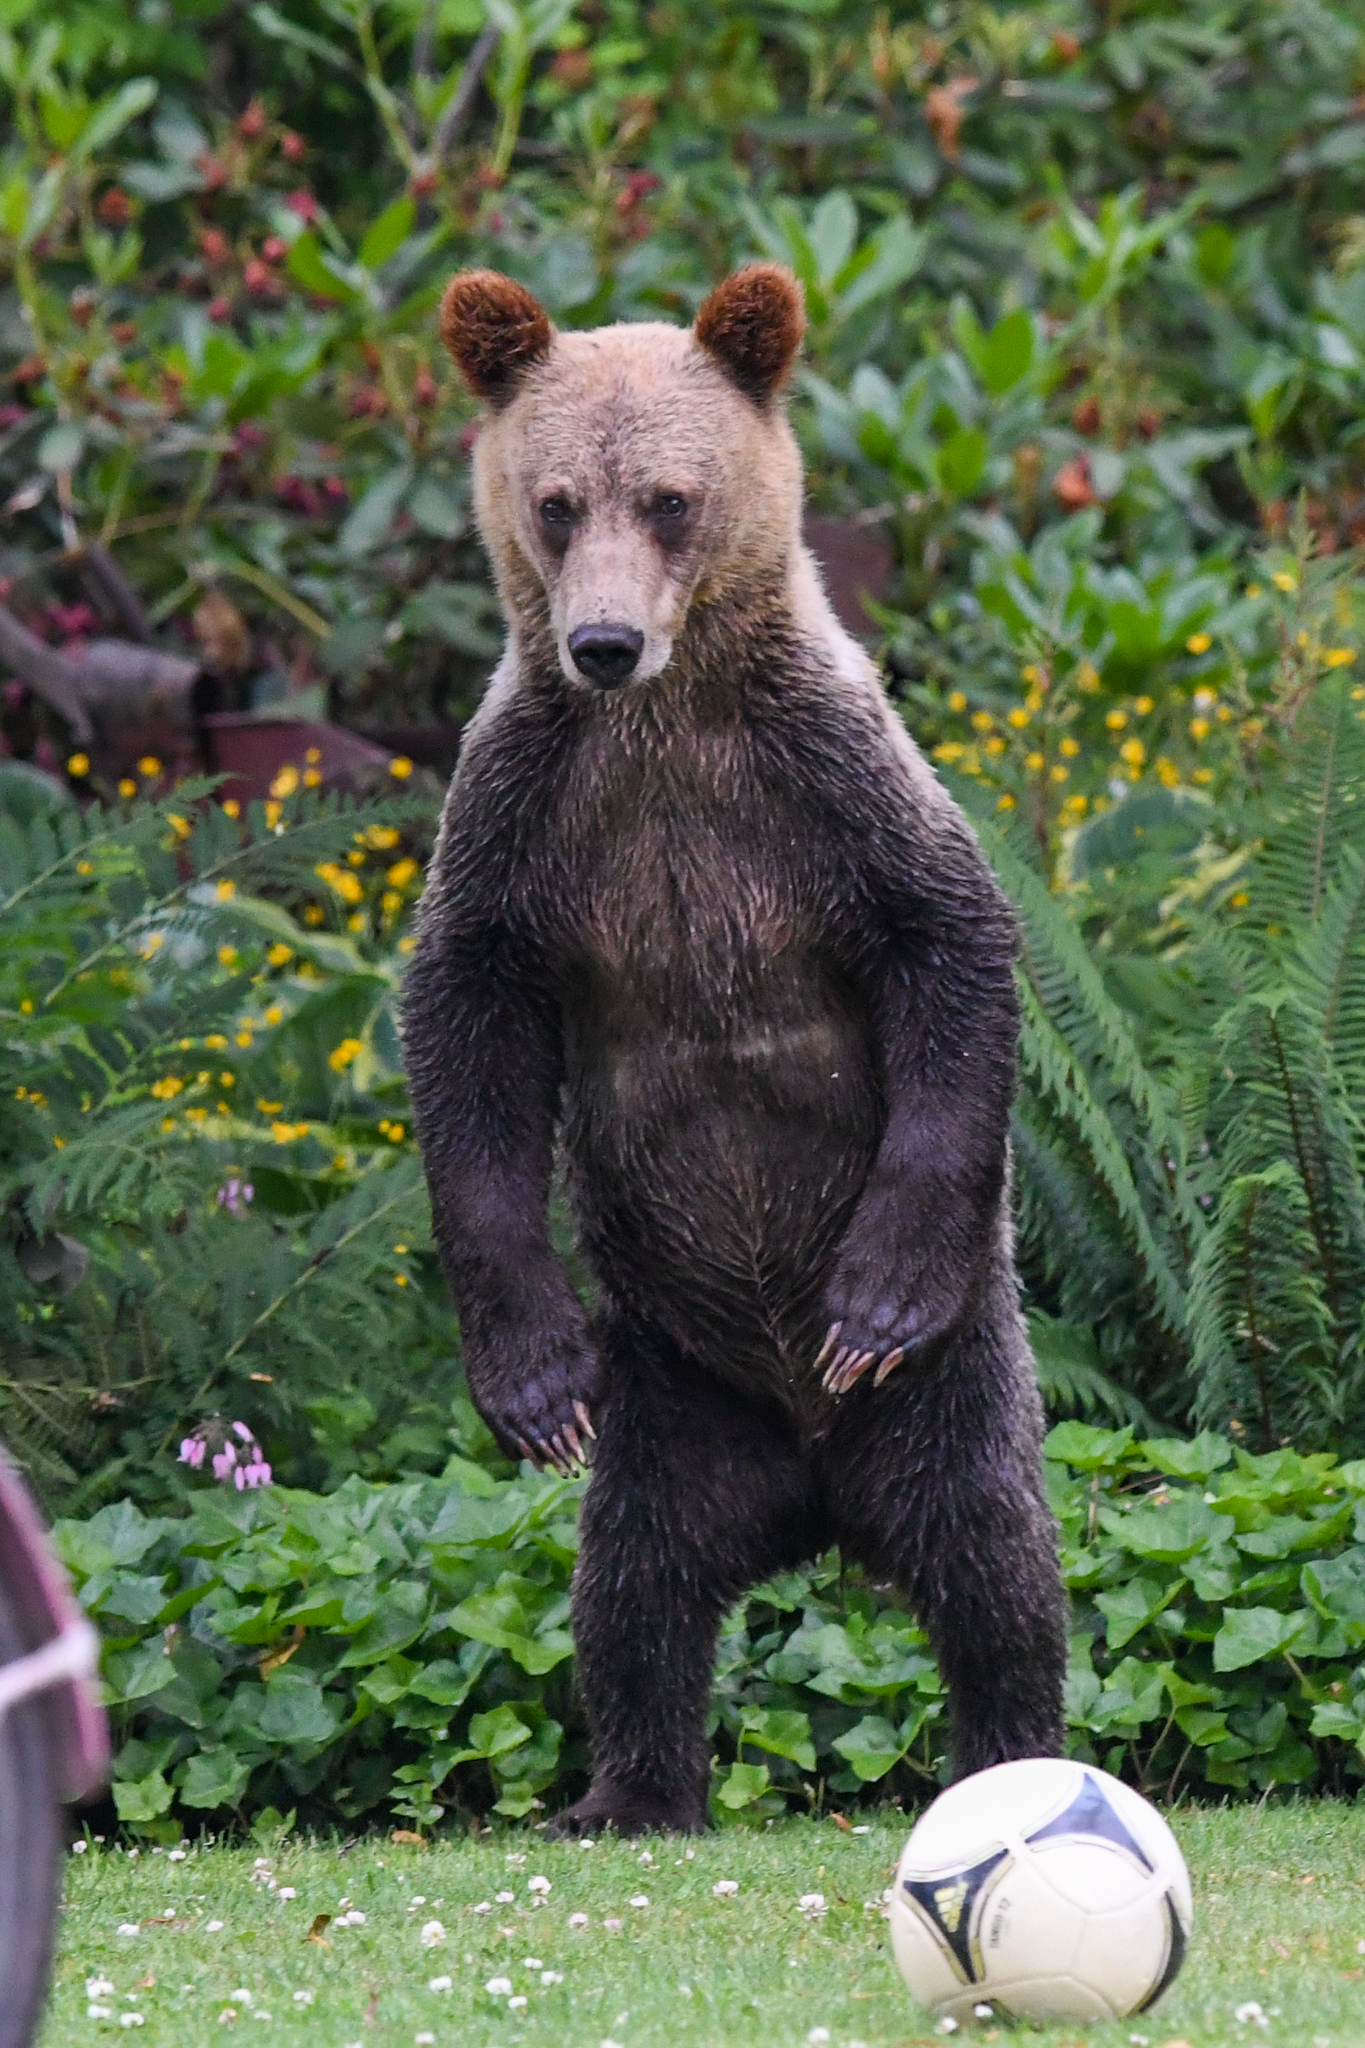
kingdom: Animalia
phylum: Chordata
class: Mammalia
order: Carnivora
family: Ursidae
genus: Ursus
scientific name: Ursus arctos
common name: Brown bear
